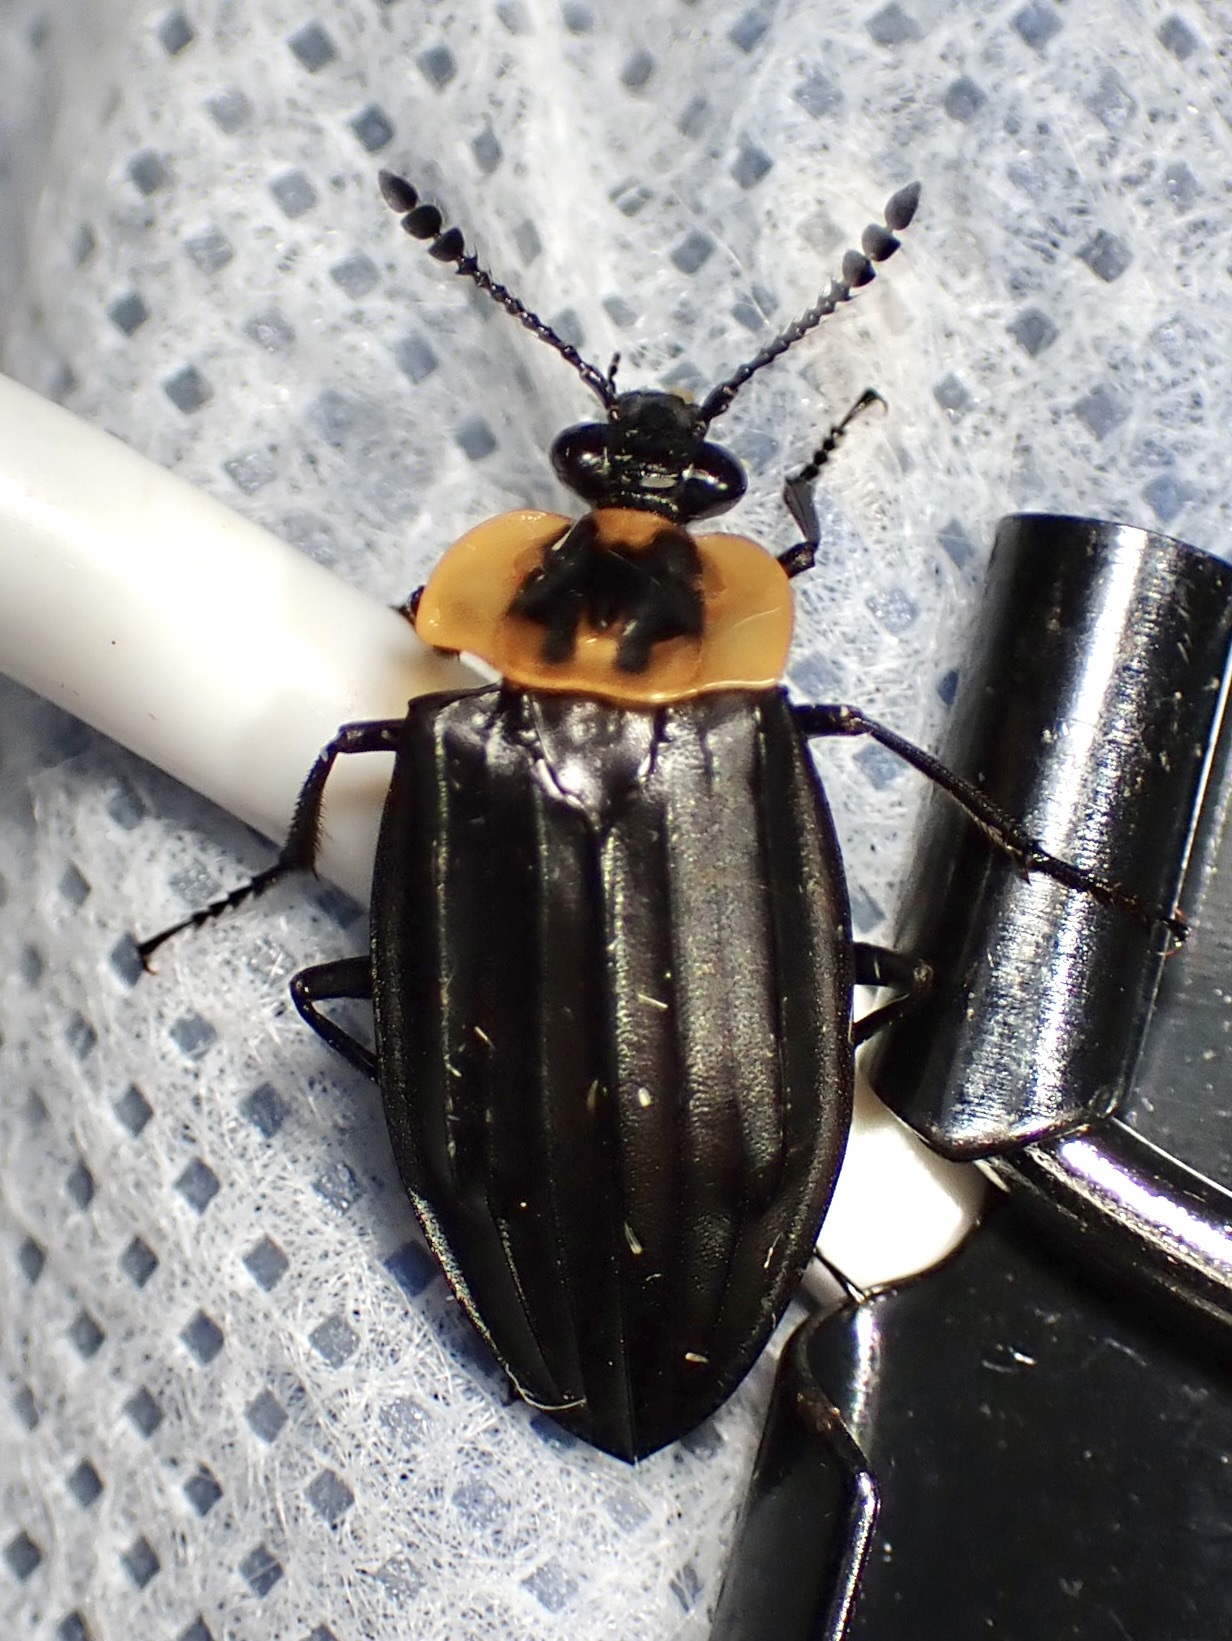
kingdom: Animalia
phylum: Arthropoda
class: Insecta
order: Coleoptera
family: Staphylinidae
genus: Oxelytrum
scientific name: Oxelytrum discicolle
